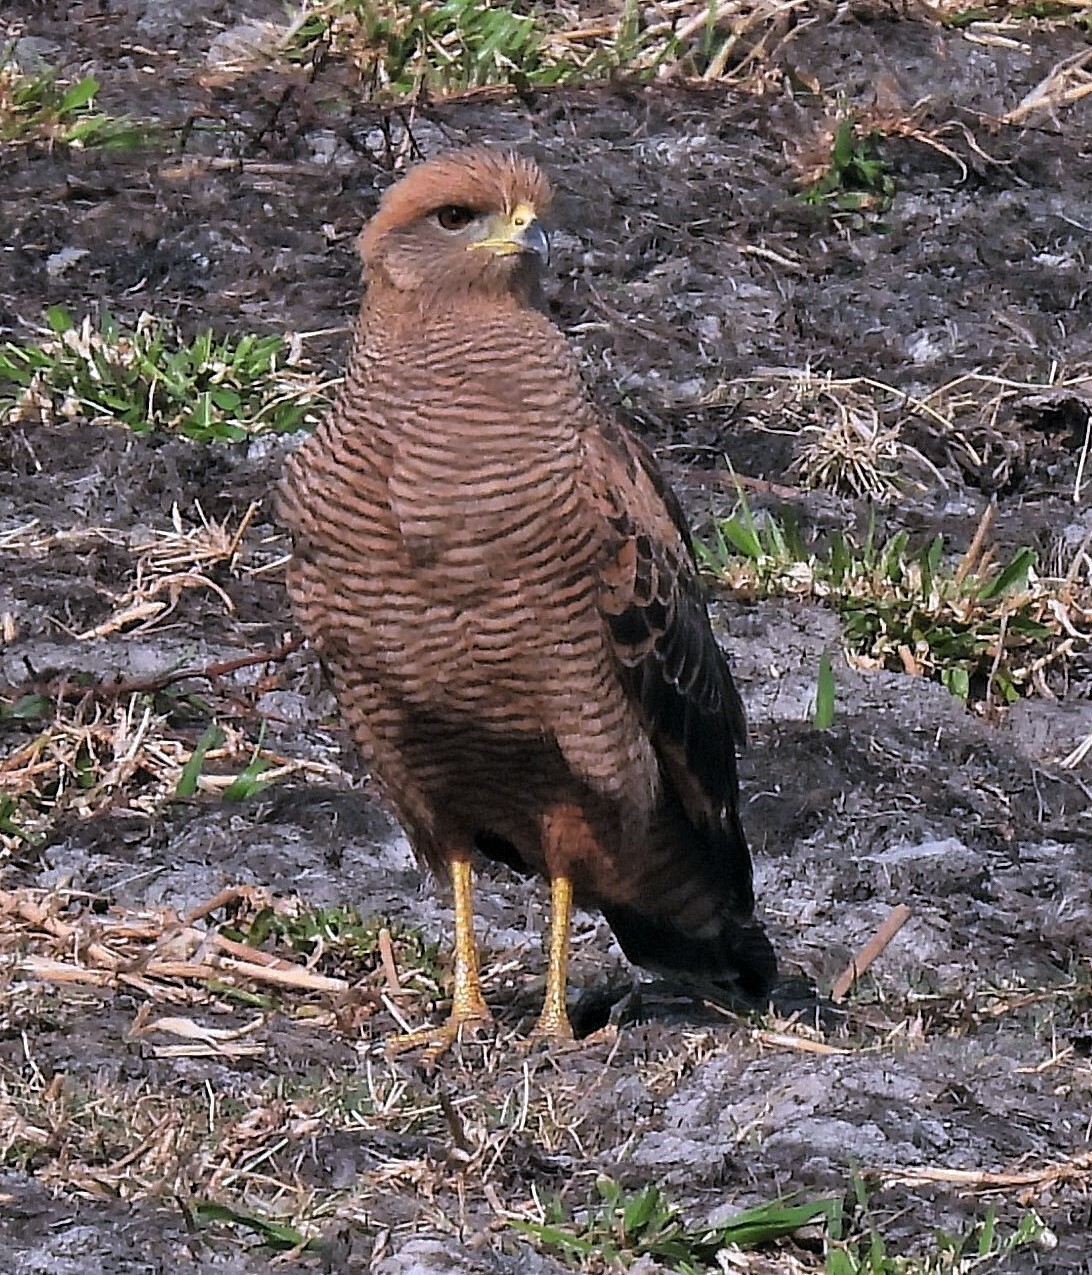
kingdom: Animalia
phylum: Chordata
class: Aves
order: Accipitriformes
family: Accipitridae
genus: Buteogallus
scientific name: Buteogallus meridionalis
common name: Savanna hawk
